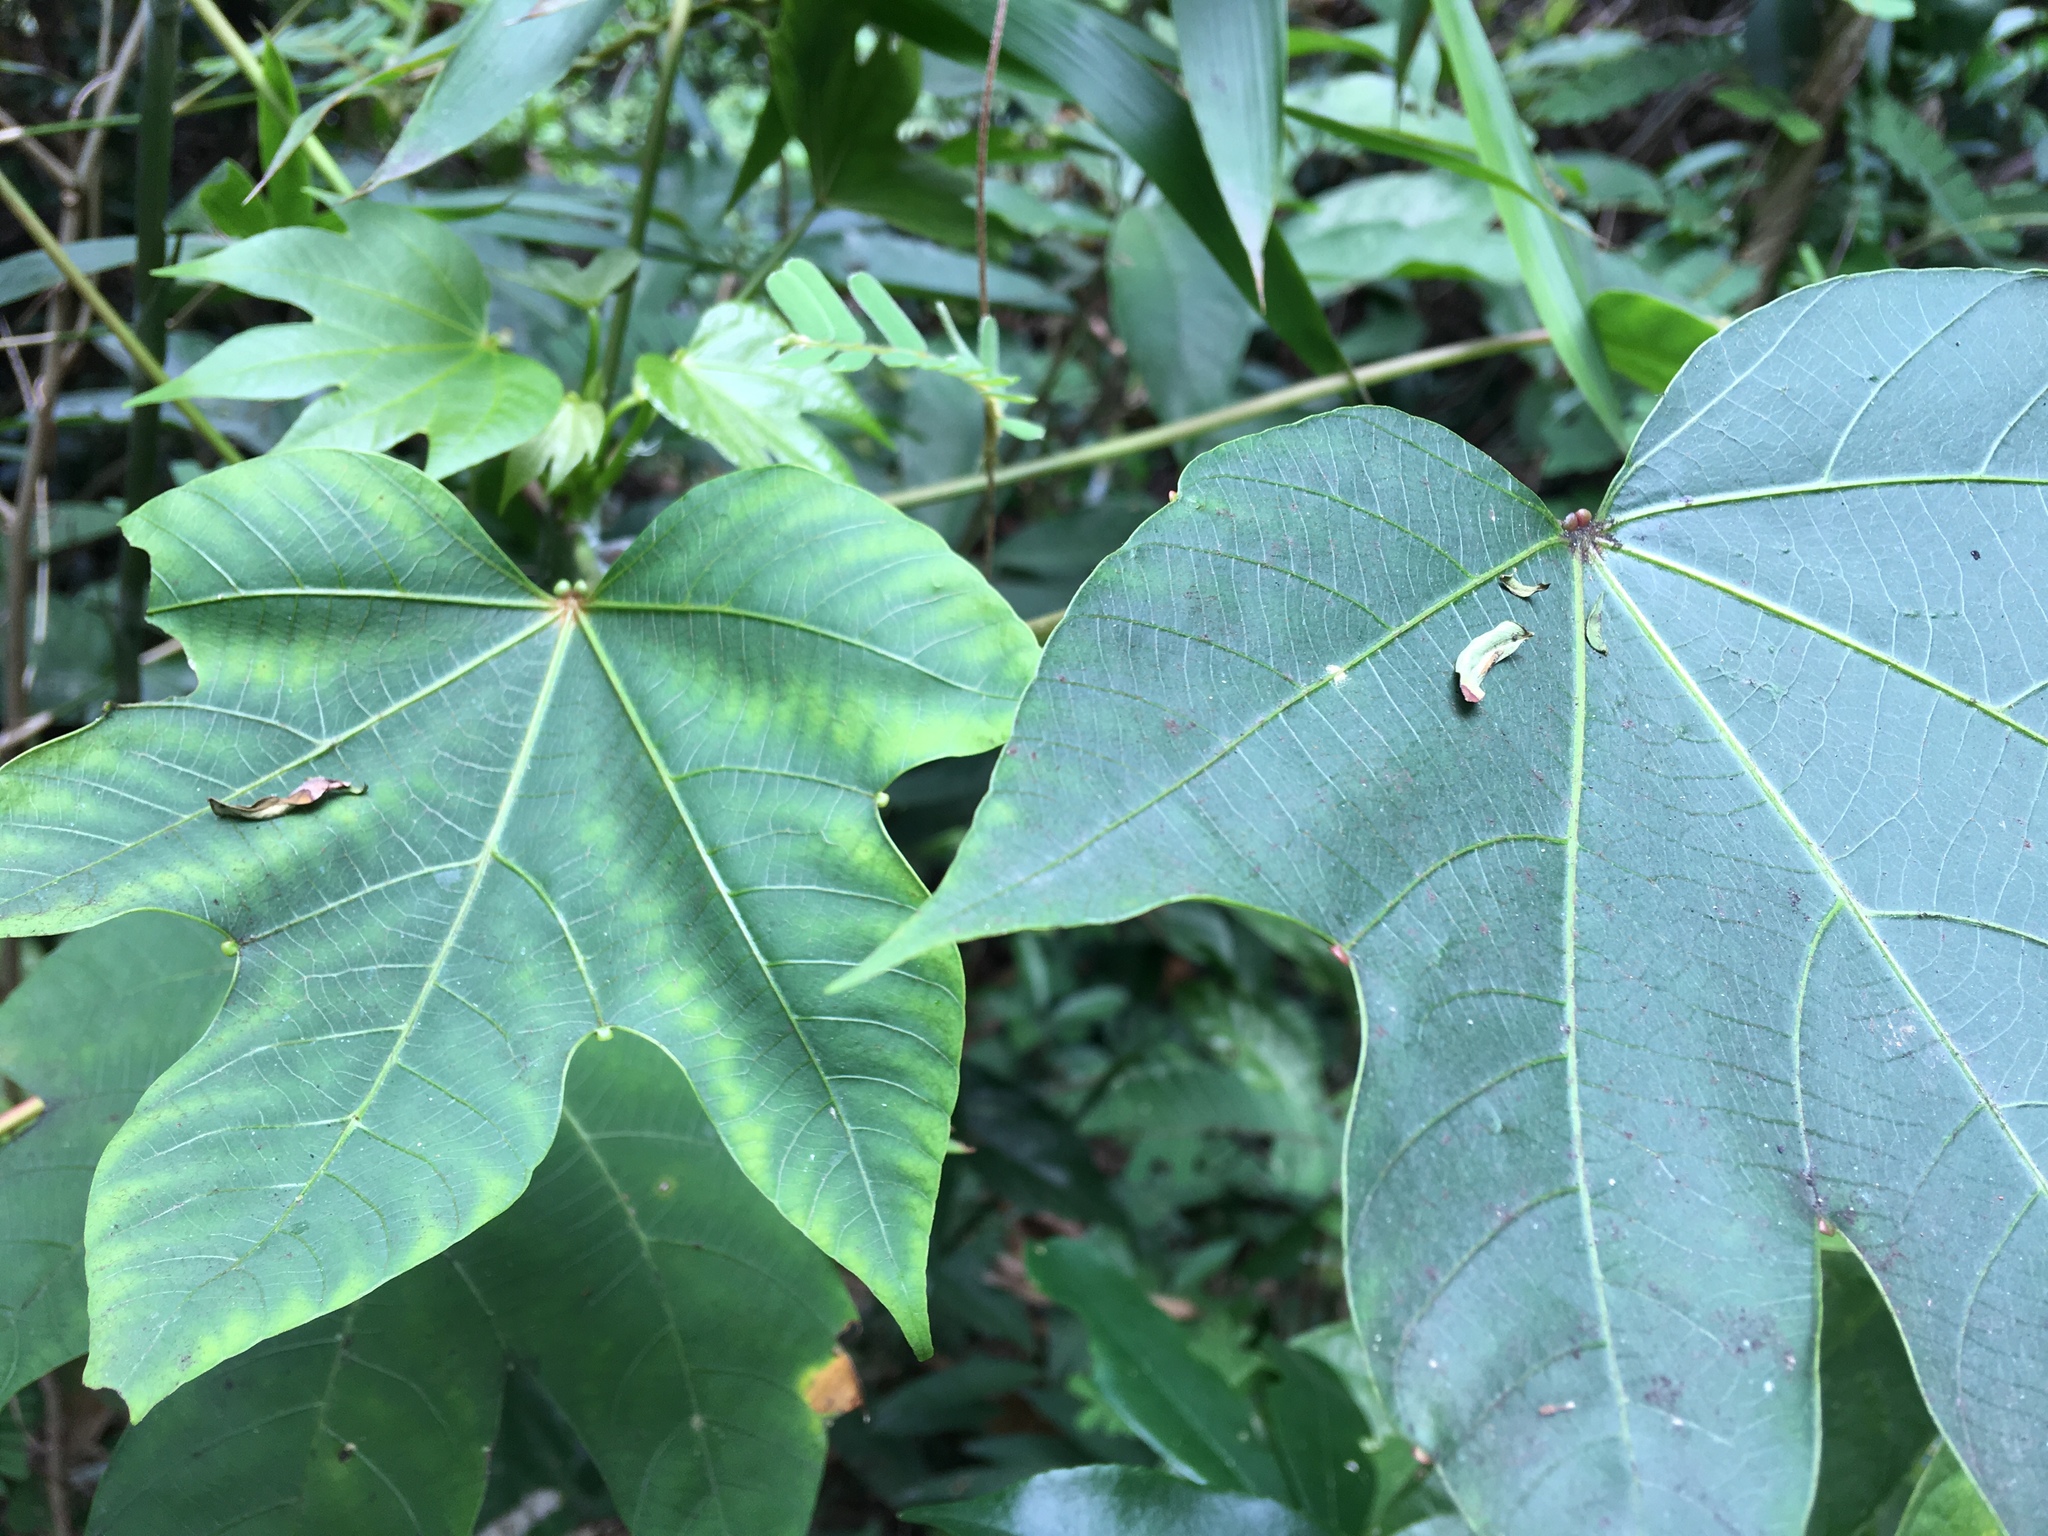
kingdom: Plantae
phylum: Tracheophyta
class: Magnoliopsida
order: Malpighiales
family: Euphorbiaceae
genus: Vernicia
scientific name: Vernicia montana
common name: Mu oil tree
